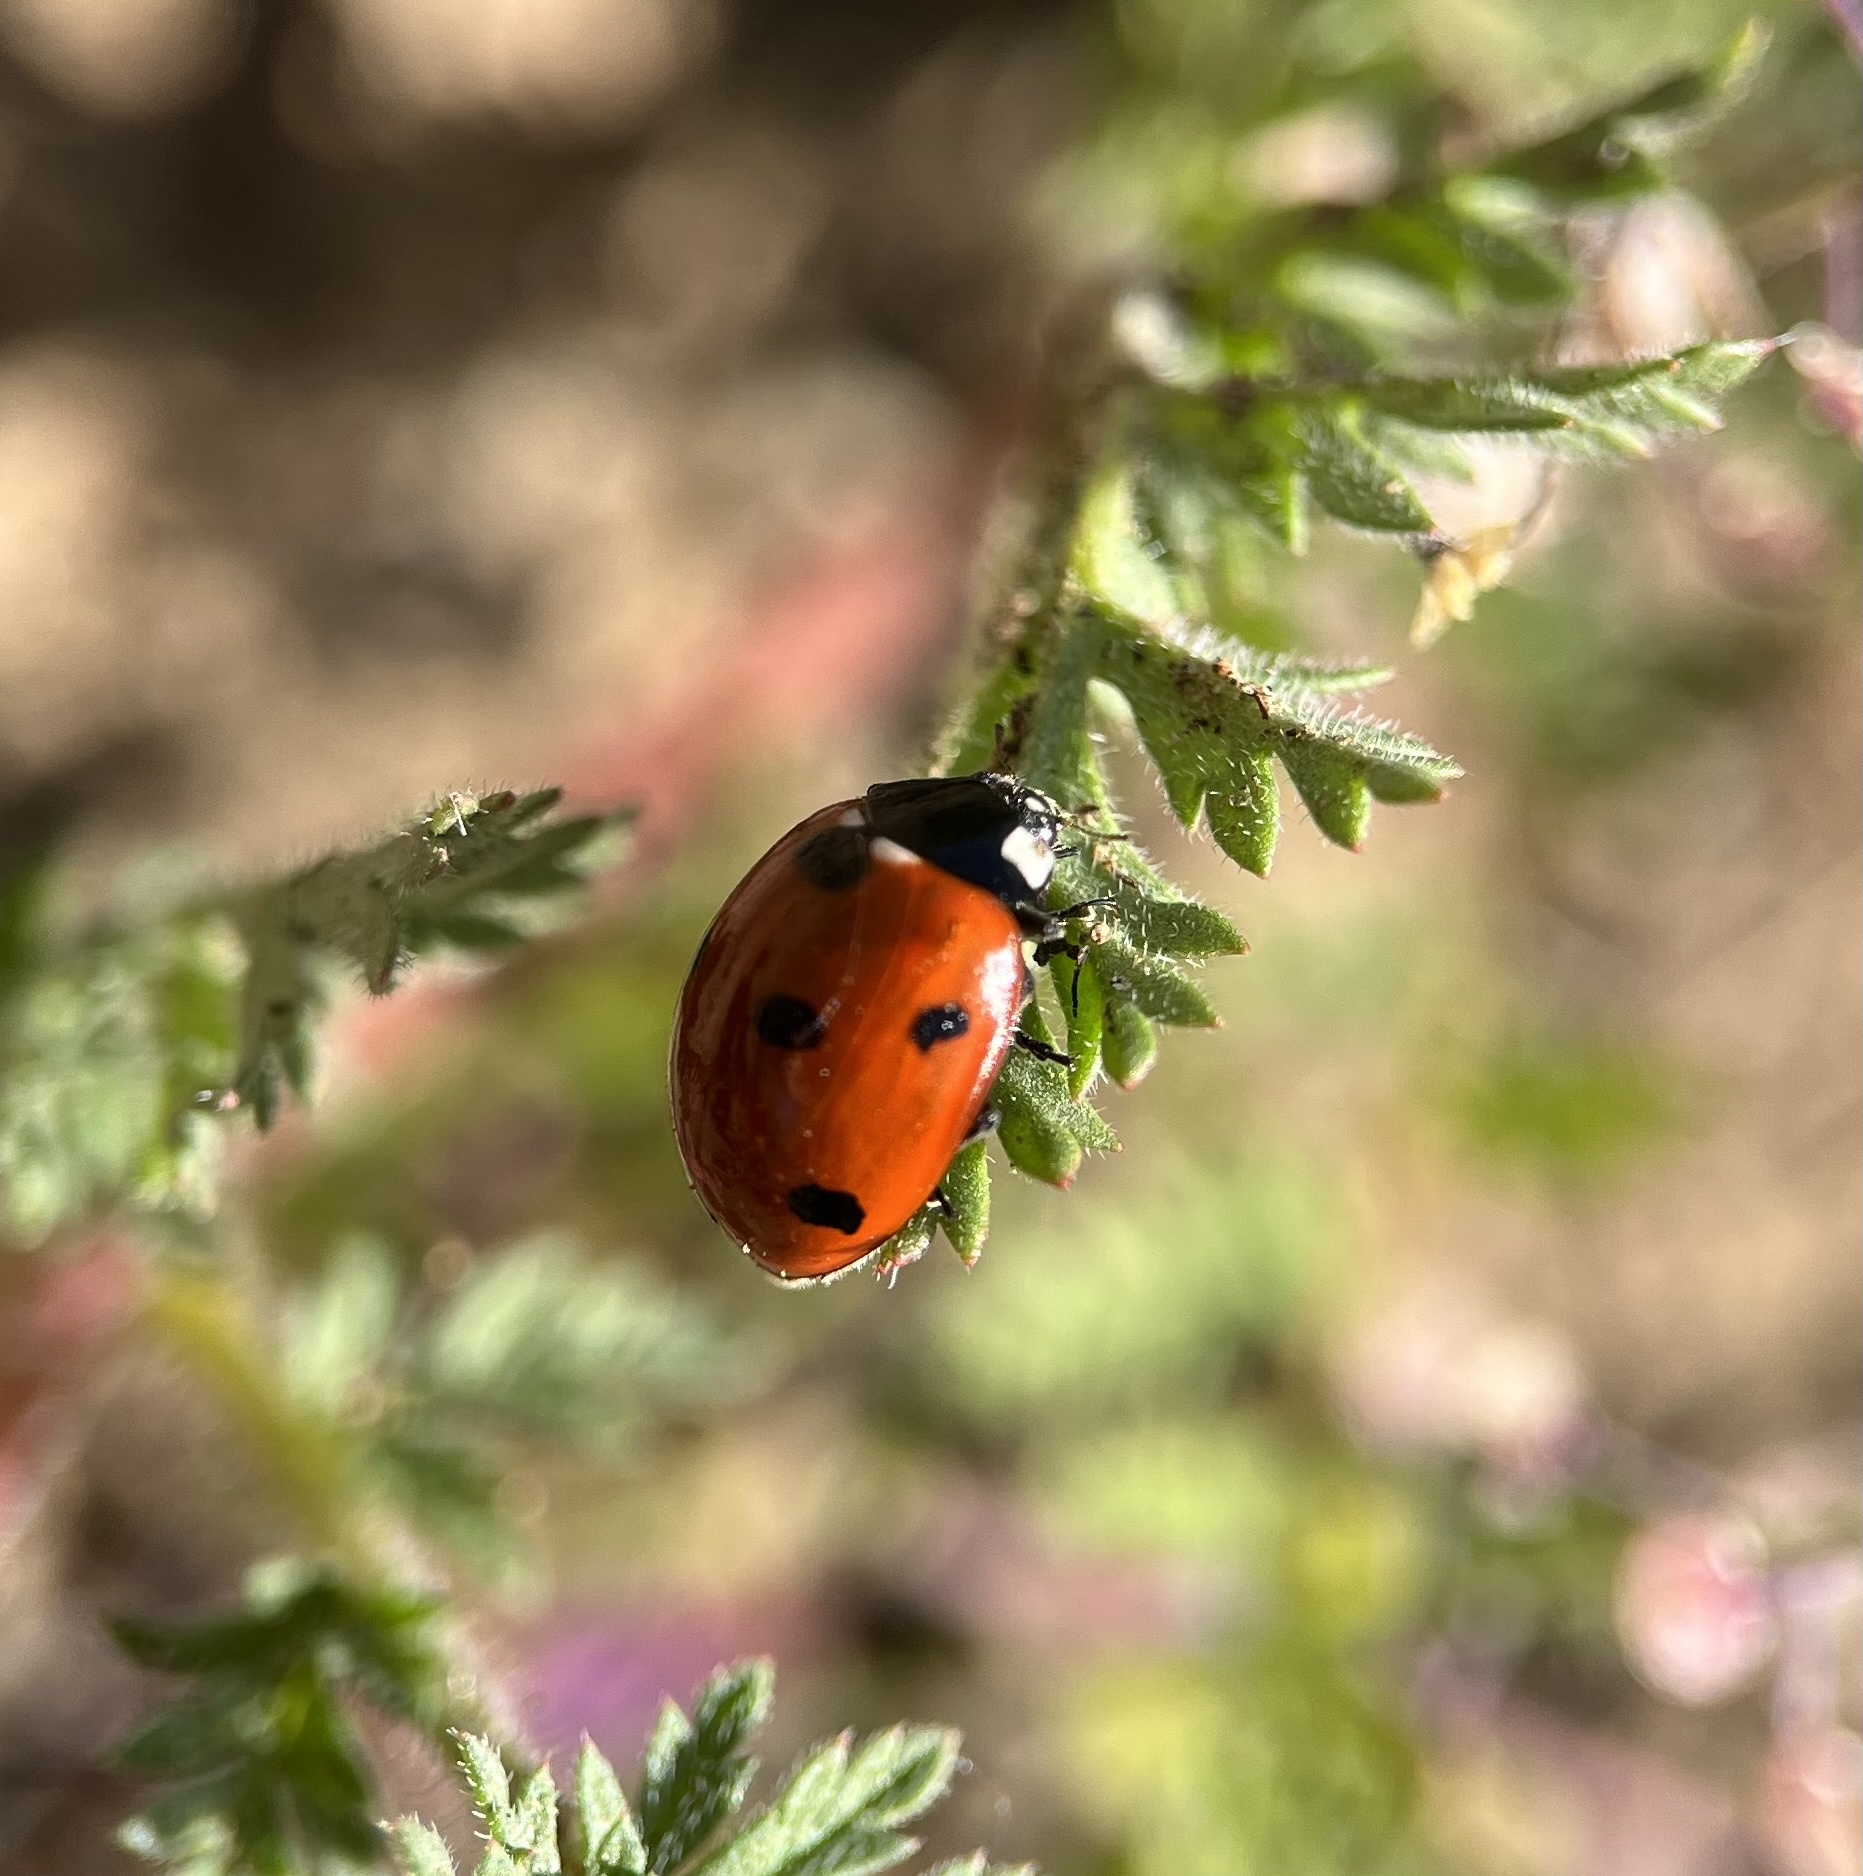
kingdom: Animalia
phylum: Arthropoda
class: Insecta
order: Coleoptera
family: Coccinellidae
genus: Coccinella
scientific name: Coccinella septempunctata
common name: Sevenspotted lady beetle
